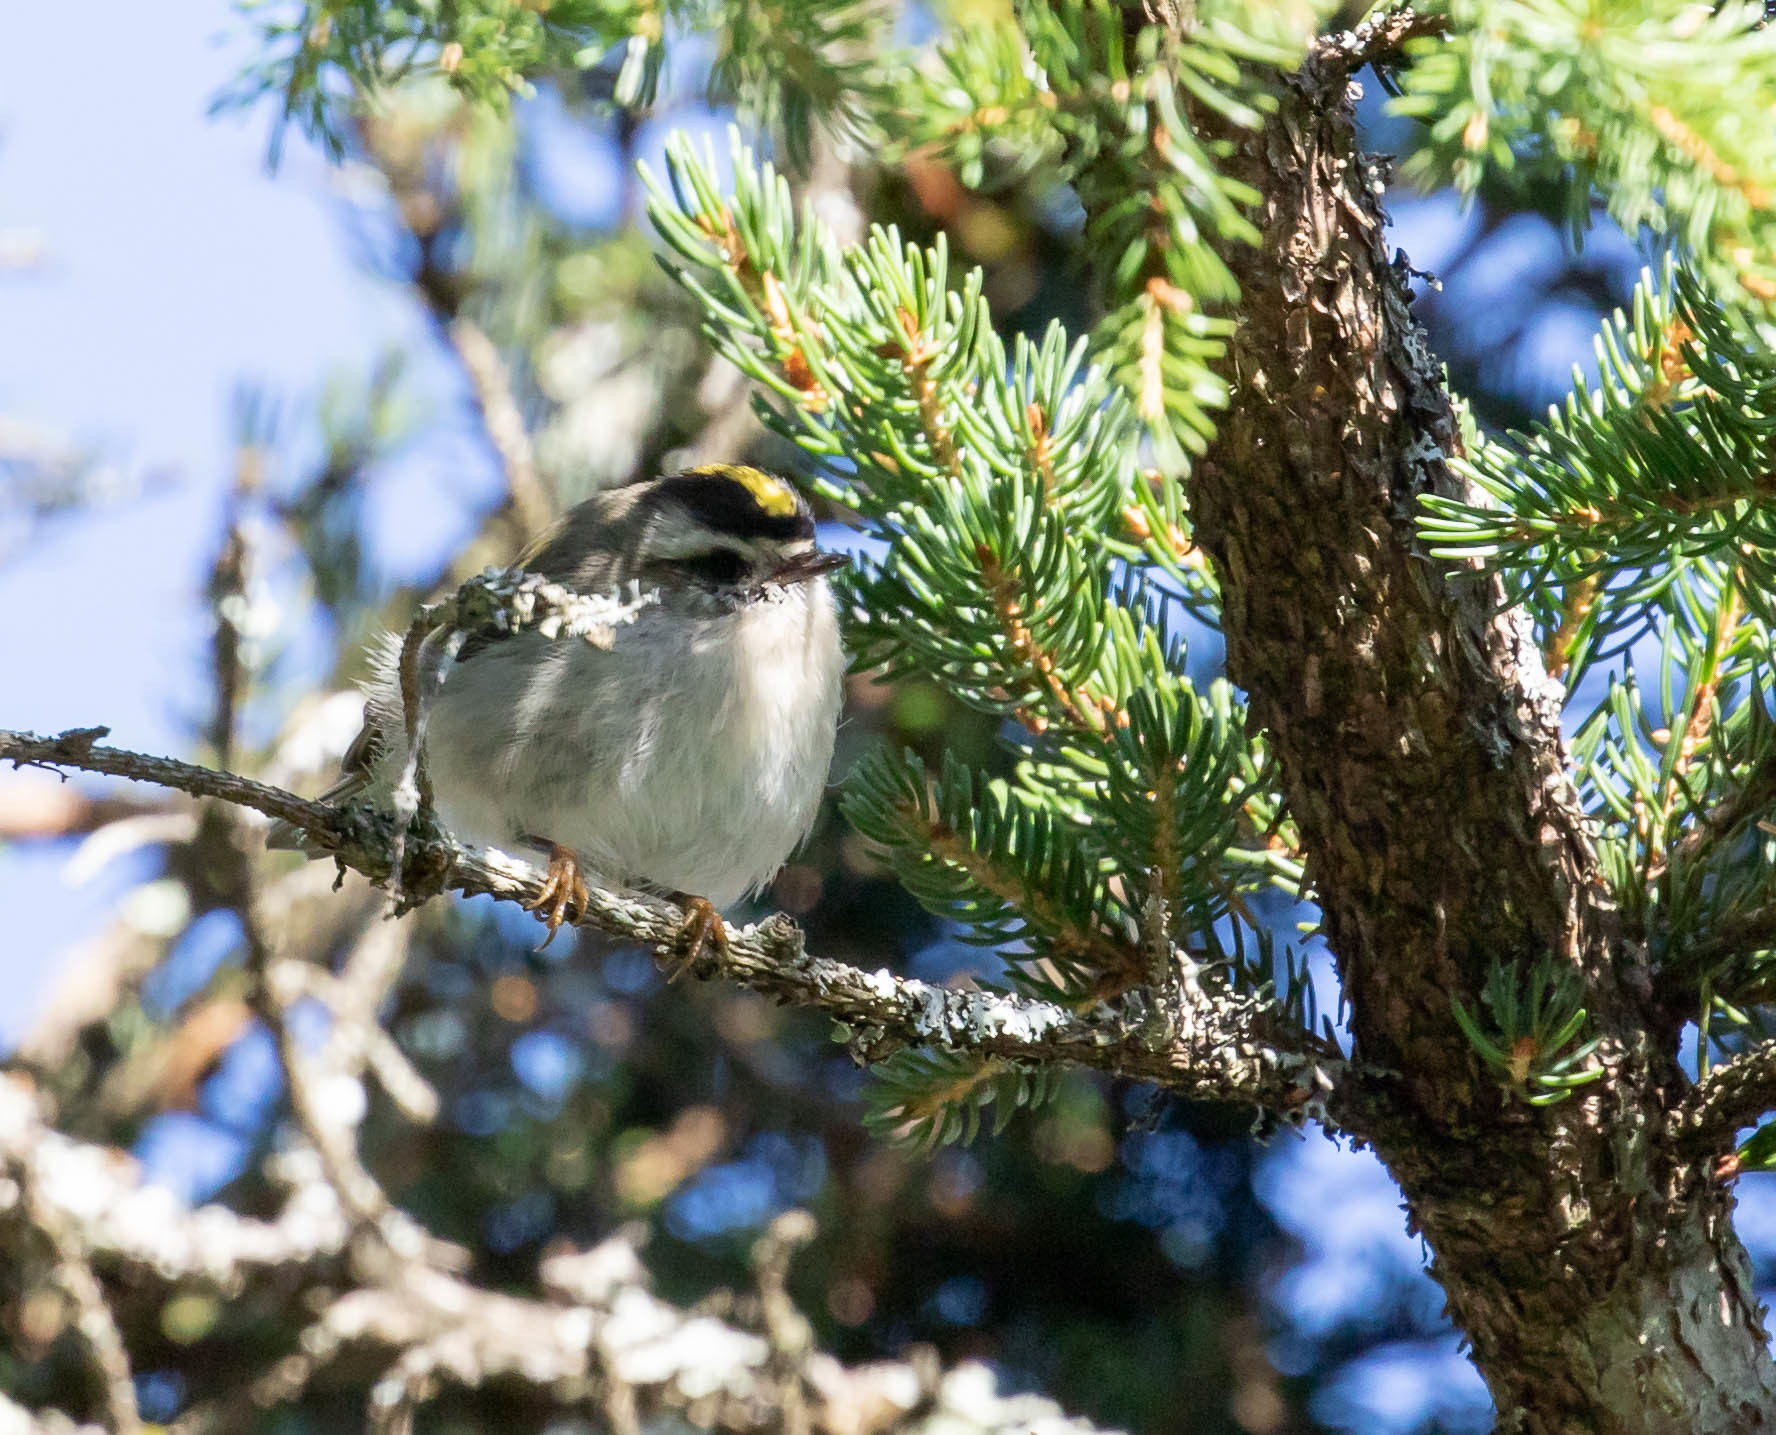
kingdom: Animalia
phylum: Chordata
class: Aves
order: Passeriformes
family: Regulidae
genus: Regulus
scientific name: Regulus satrapa
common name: Golden-crowned kinglet
